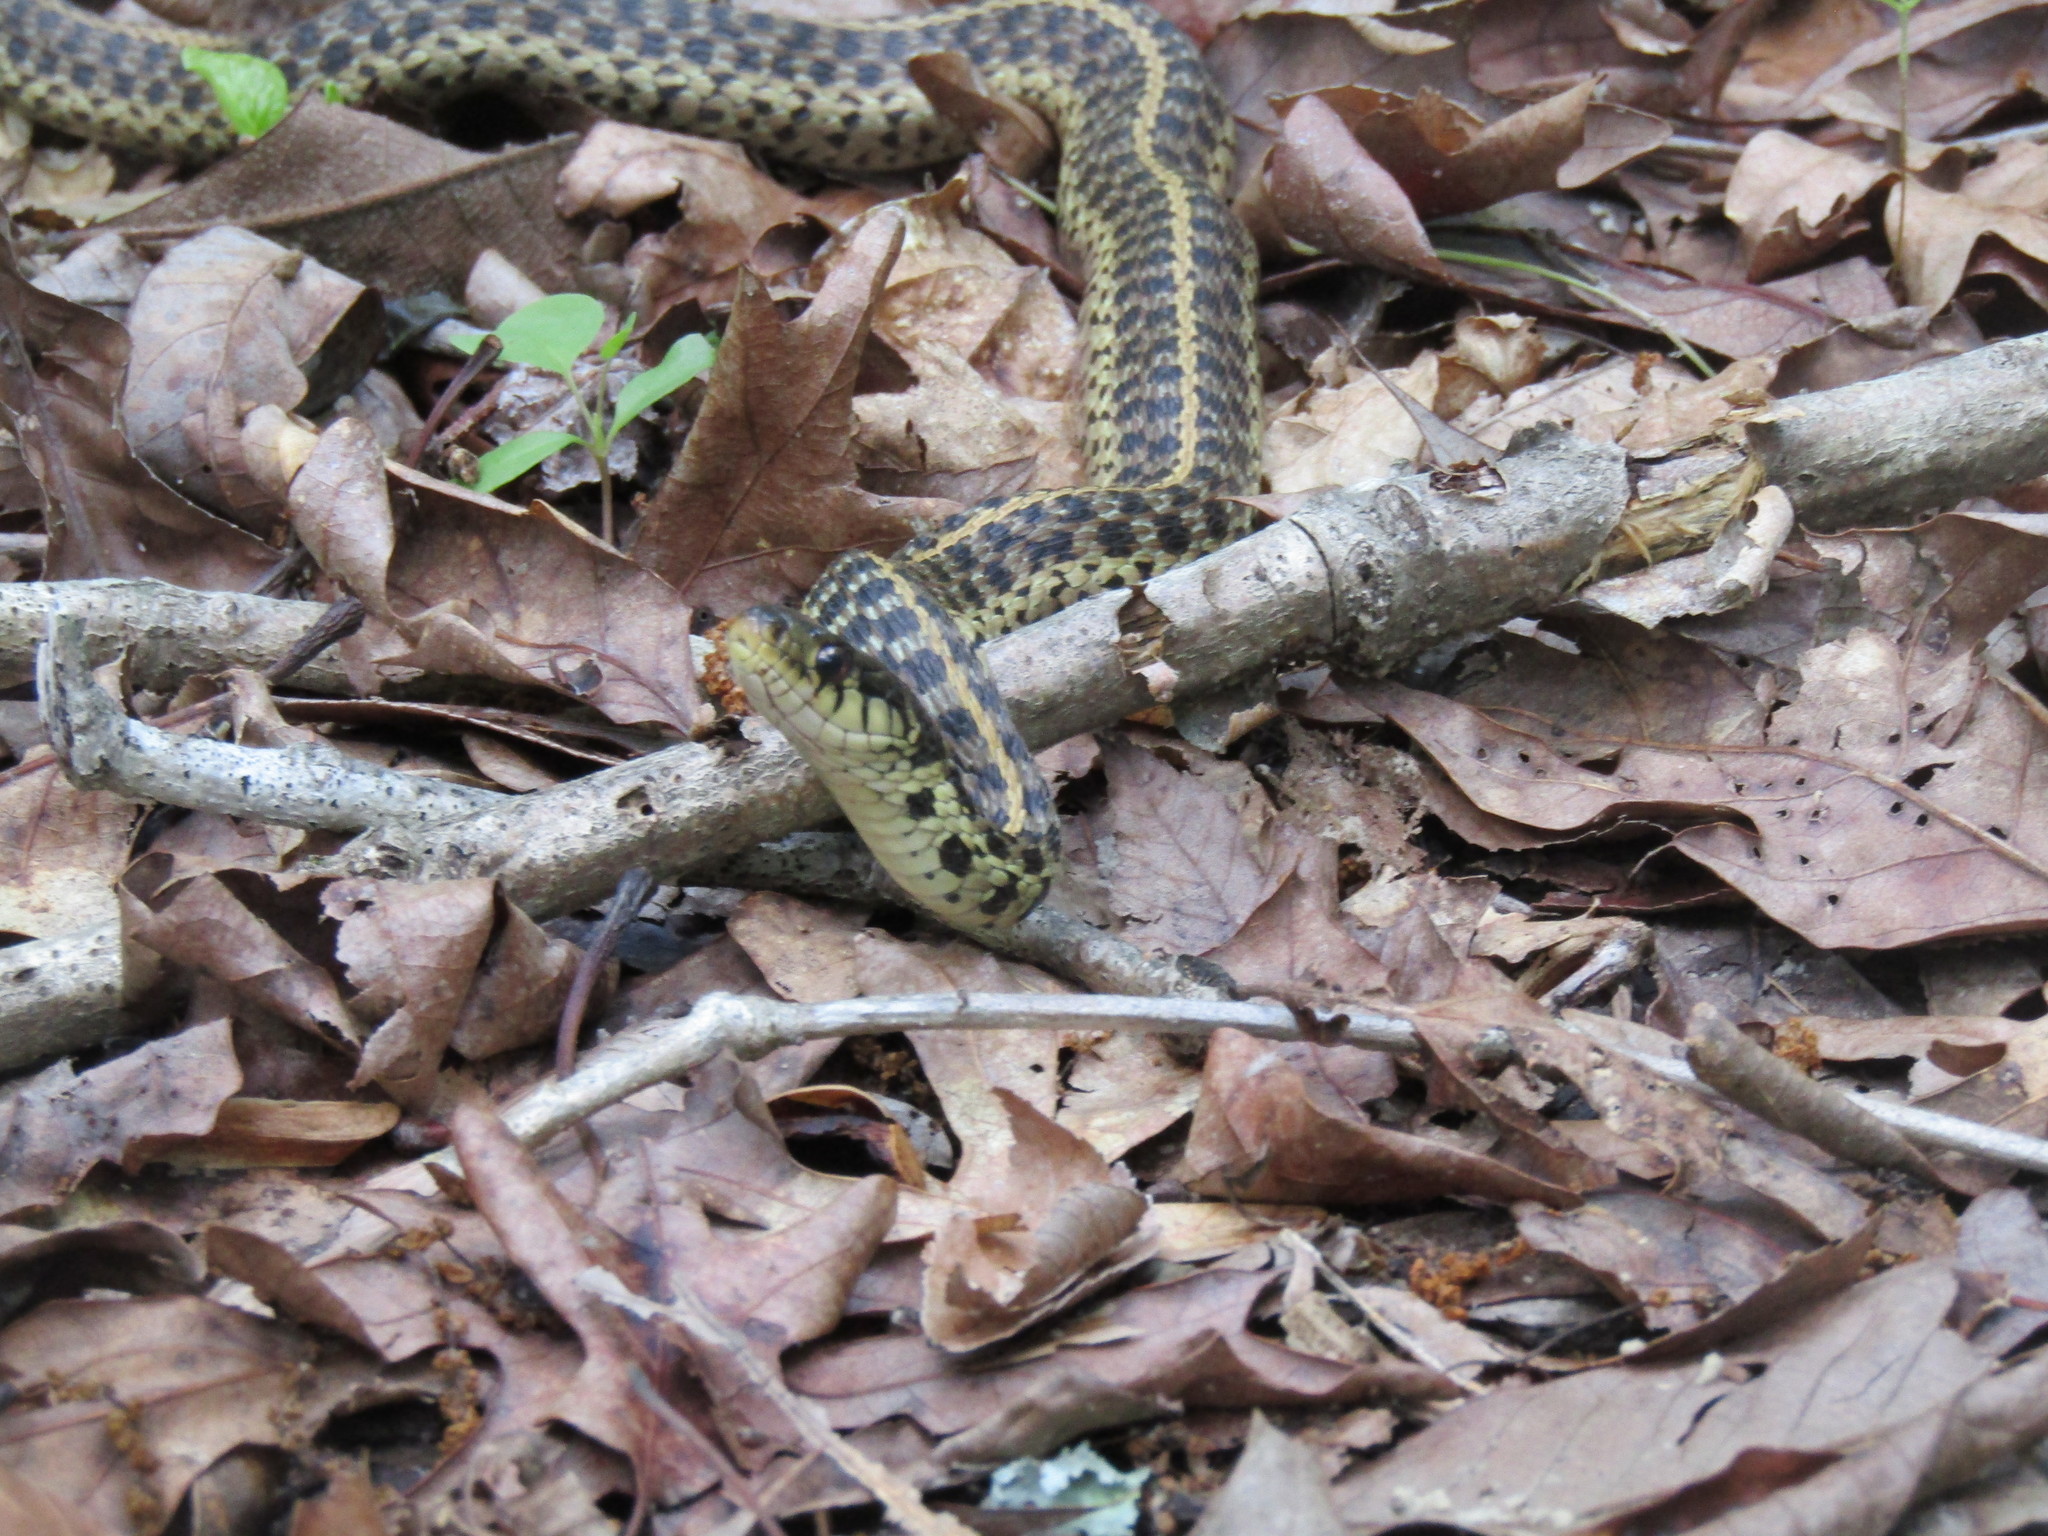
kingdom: Animalia
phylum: Chordata
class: Squamata
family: Colubridae
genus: Thamnophis
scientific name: Thamnophis sirtalis
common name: Common garter snake
